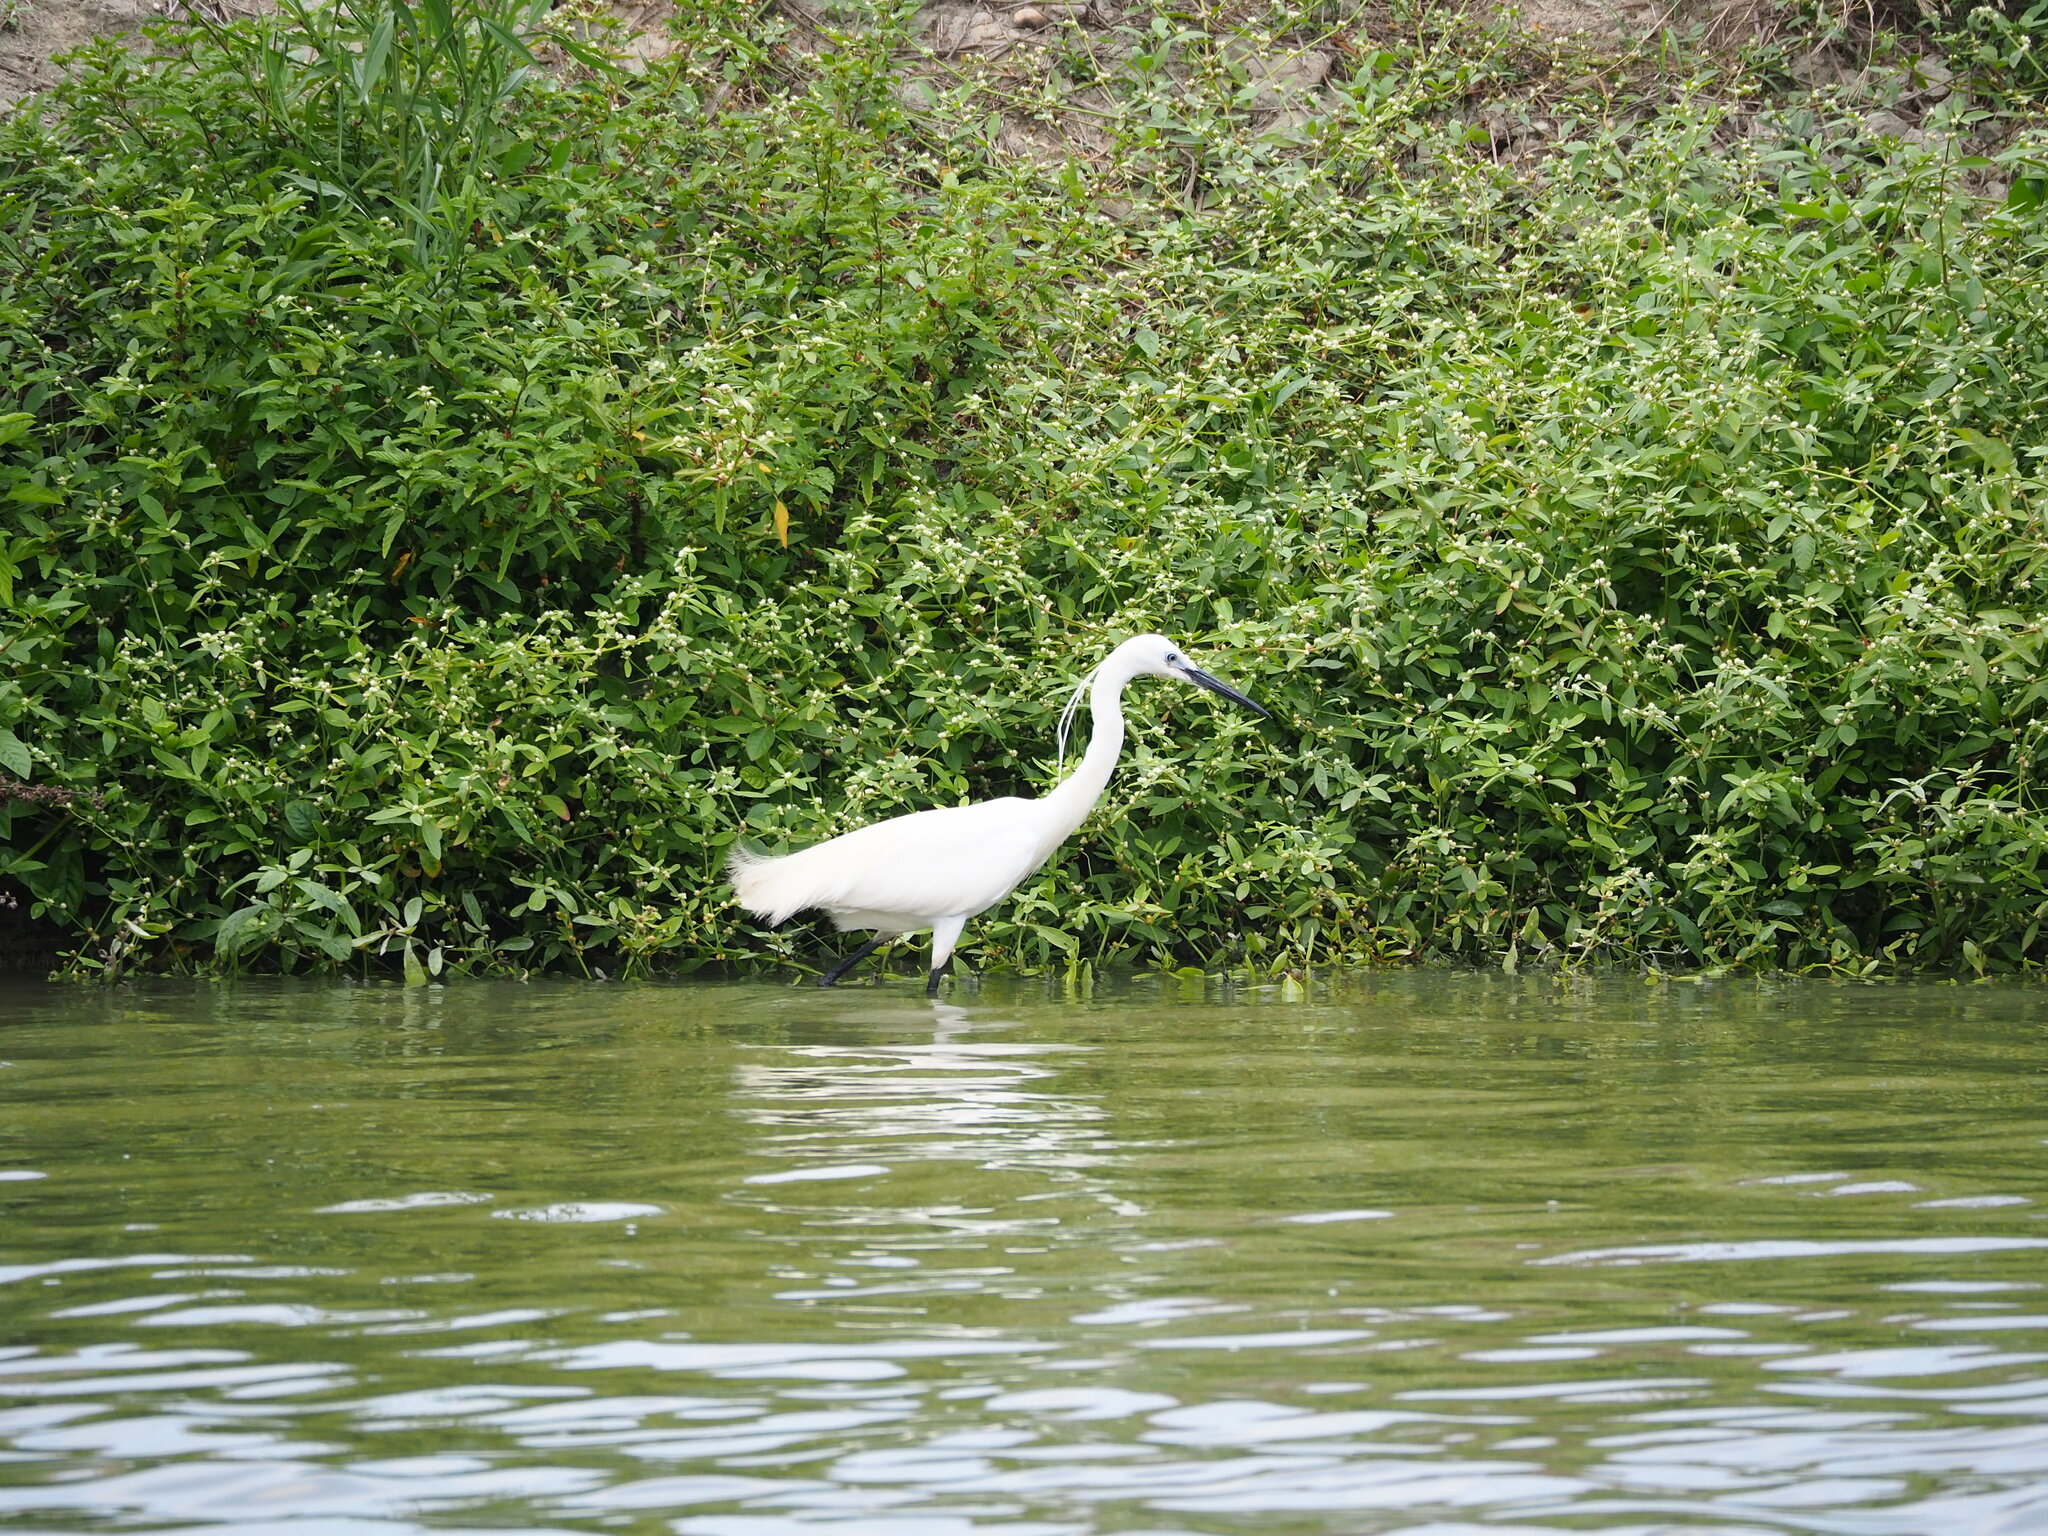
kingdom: Animalia
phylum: Chordata
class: Aves
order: Pelecaniformes
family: Ardeidae
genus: Egretta
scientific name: Egretta garzetta
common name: Little egret
